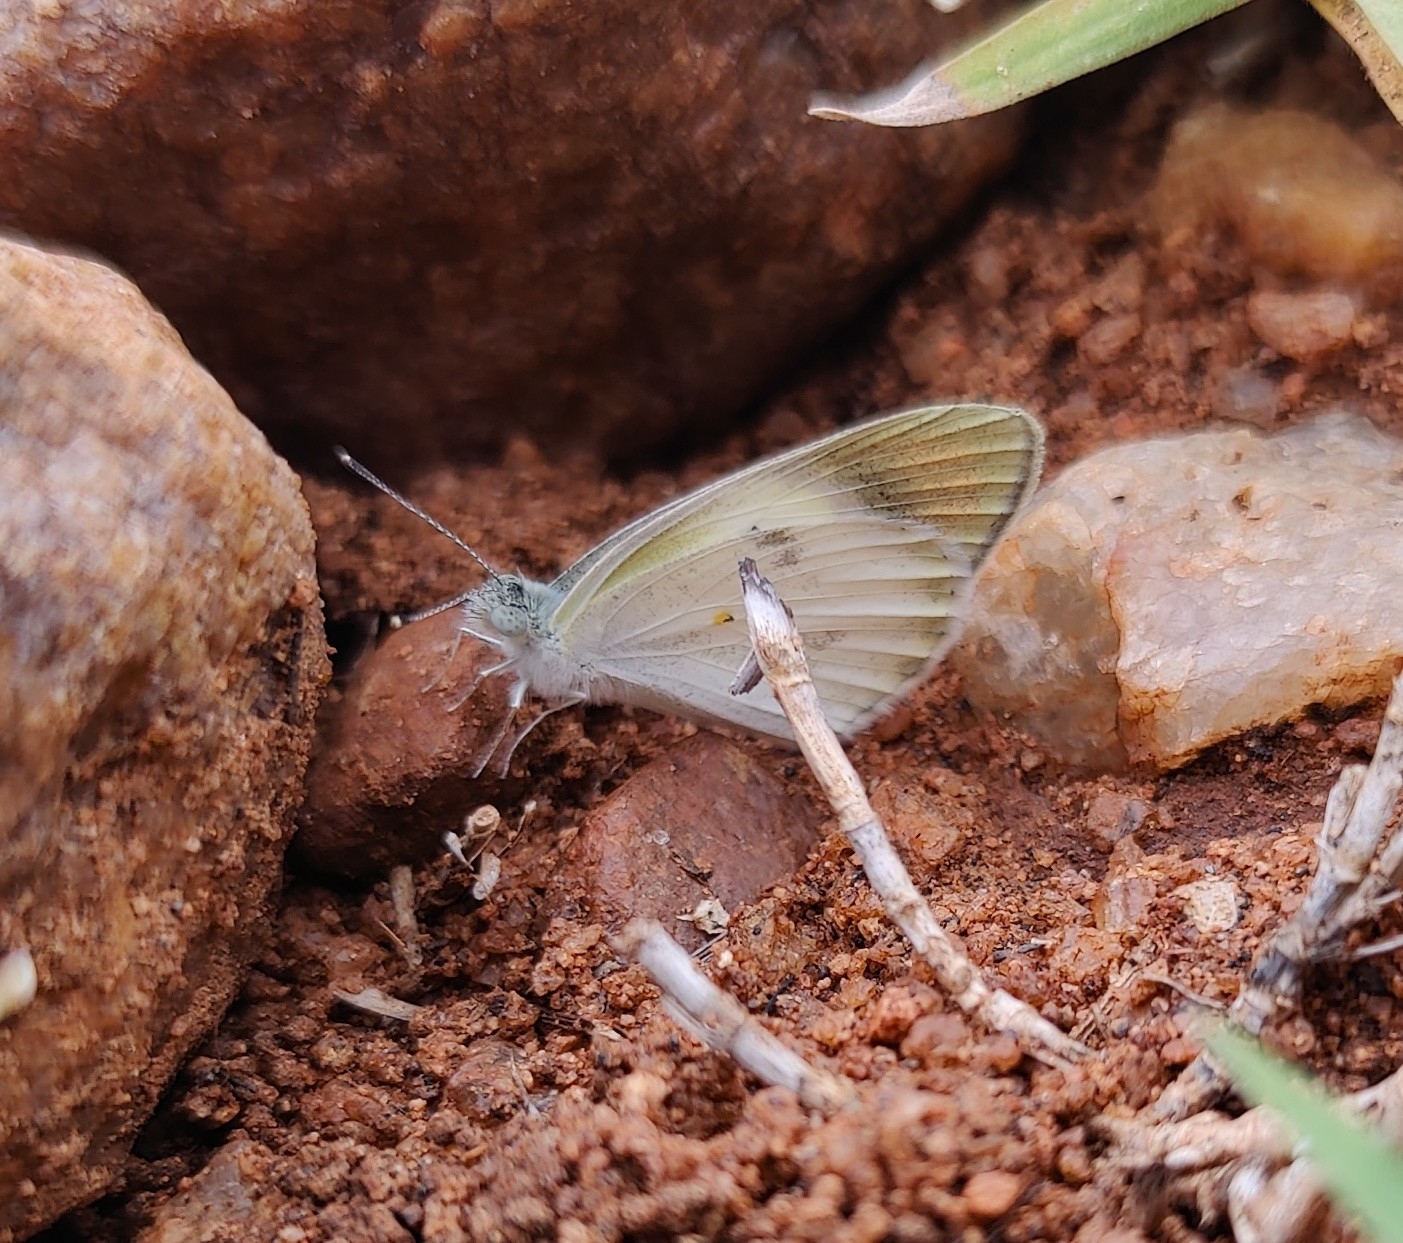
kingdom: Animalia
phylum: Arthropoda
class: Insecta
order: Lepidoptera
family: Pieridae
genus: Colotis
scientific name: Colotis etrida
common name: Little orange tip
